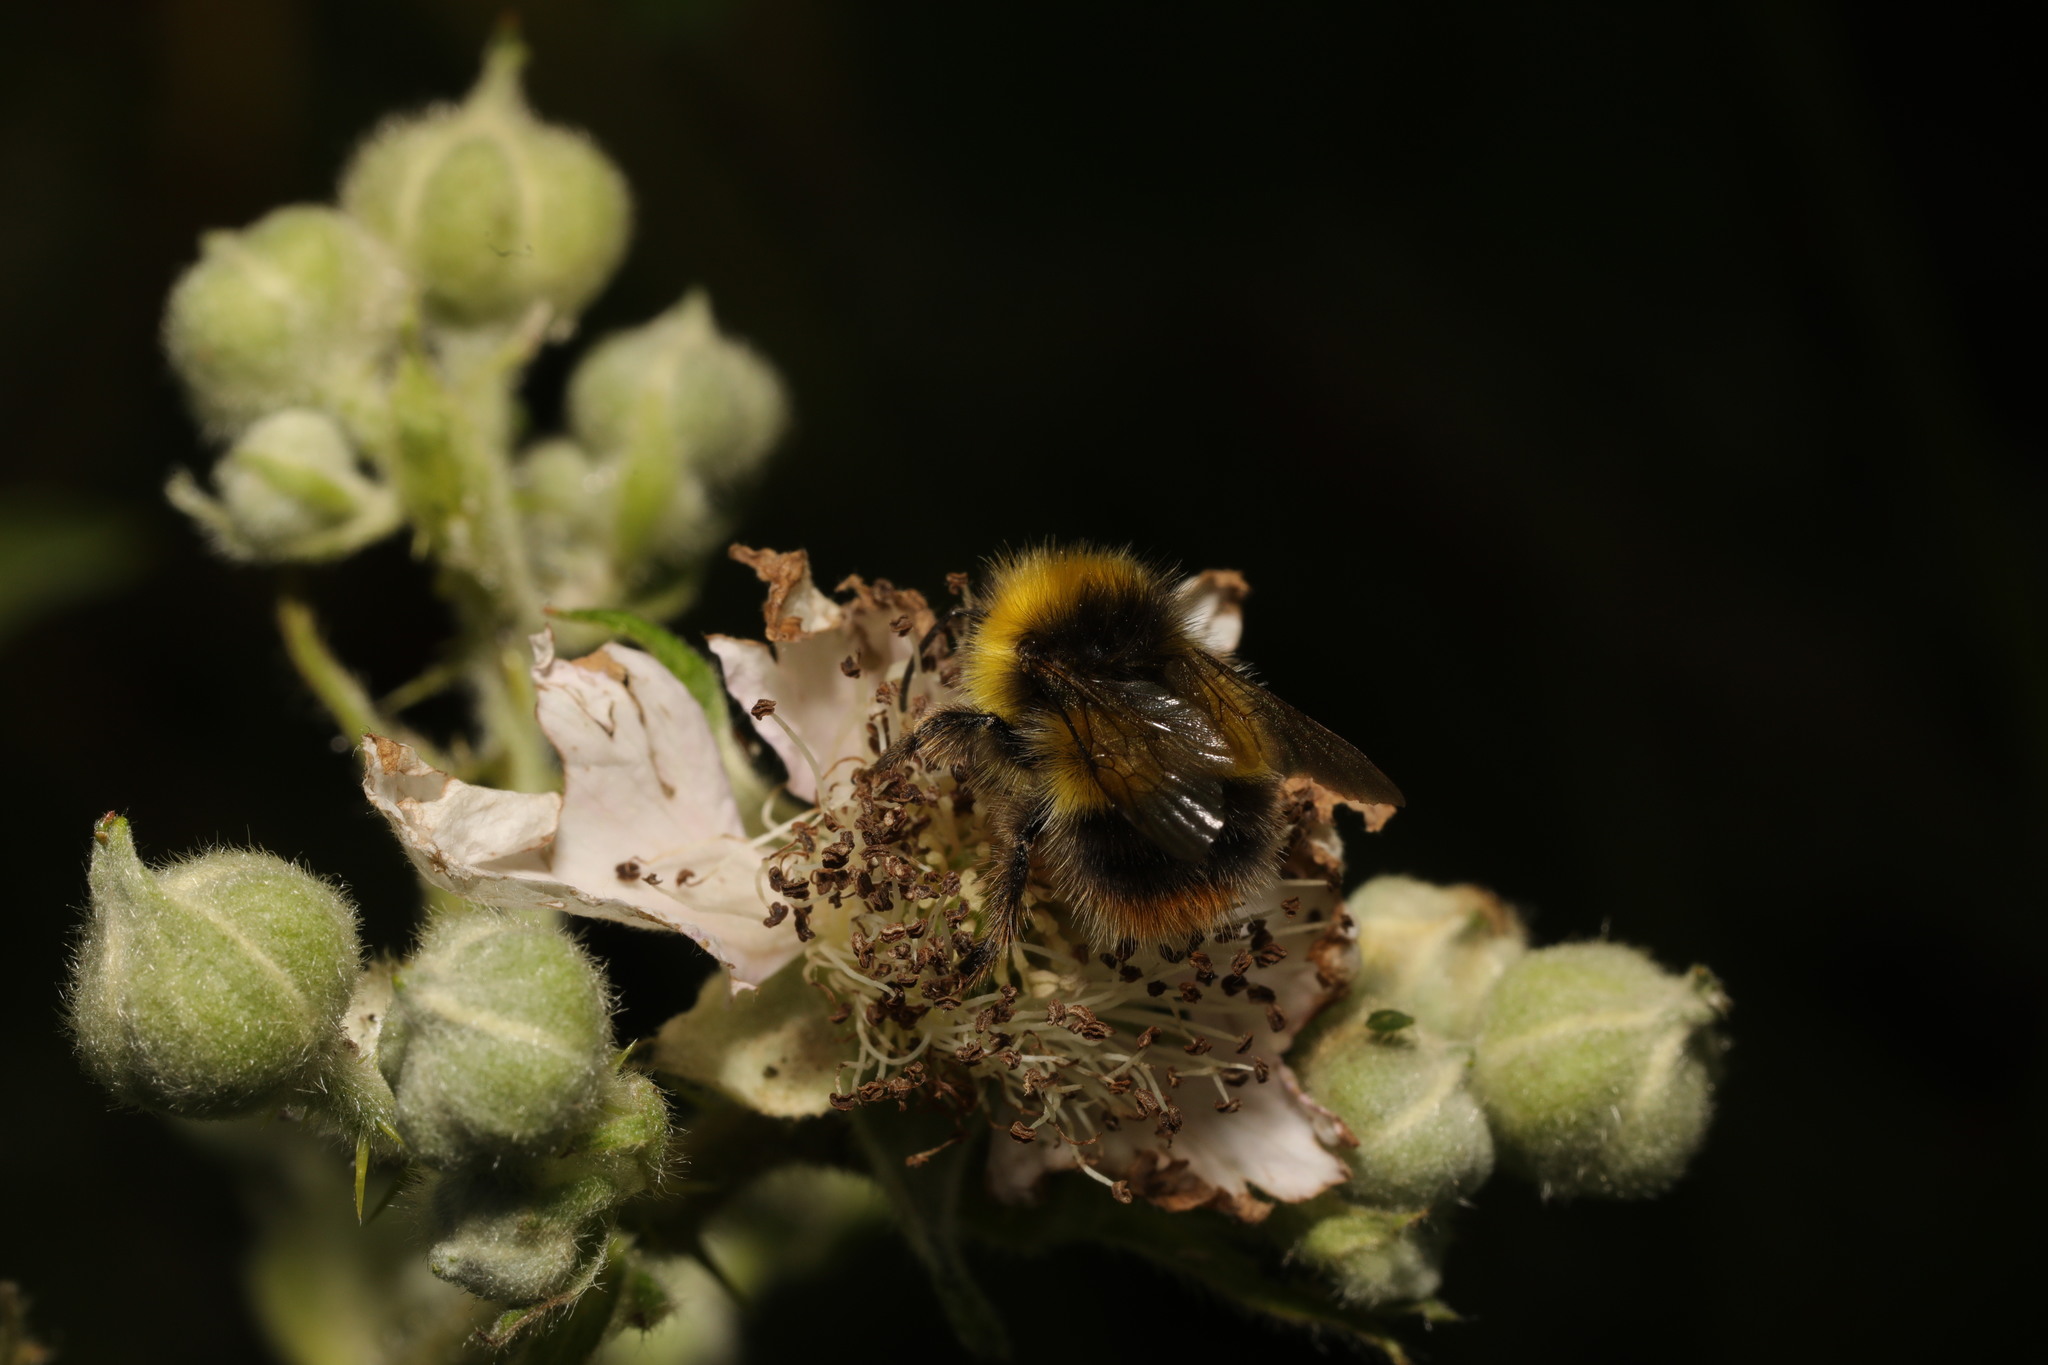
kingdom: Animalia
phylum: Arthropoda
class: Insecta
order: Hymenoptera
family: Apidae
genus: Bombus
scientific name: Bombus pratorum
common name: Early humble-bee
